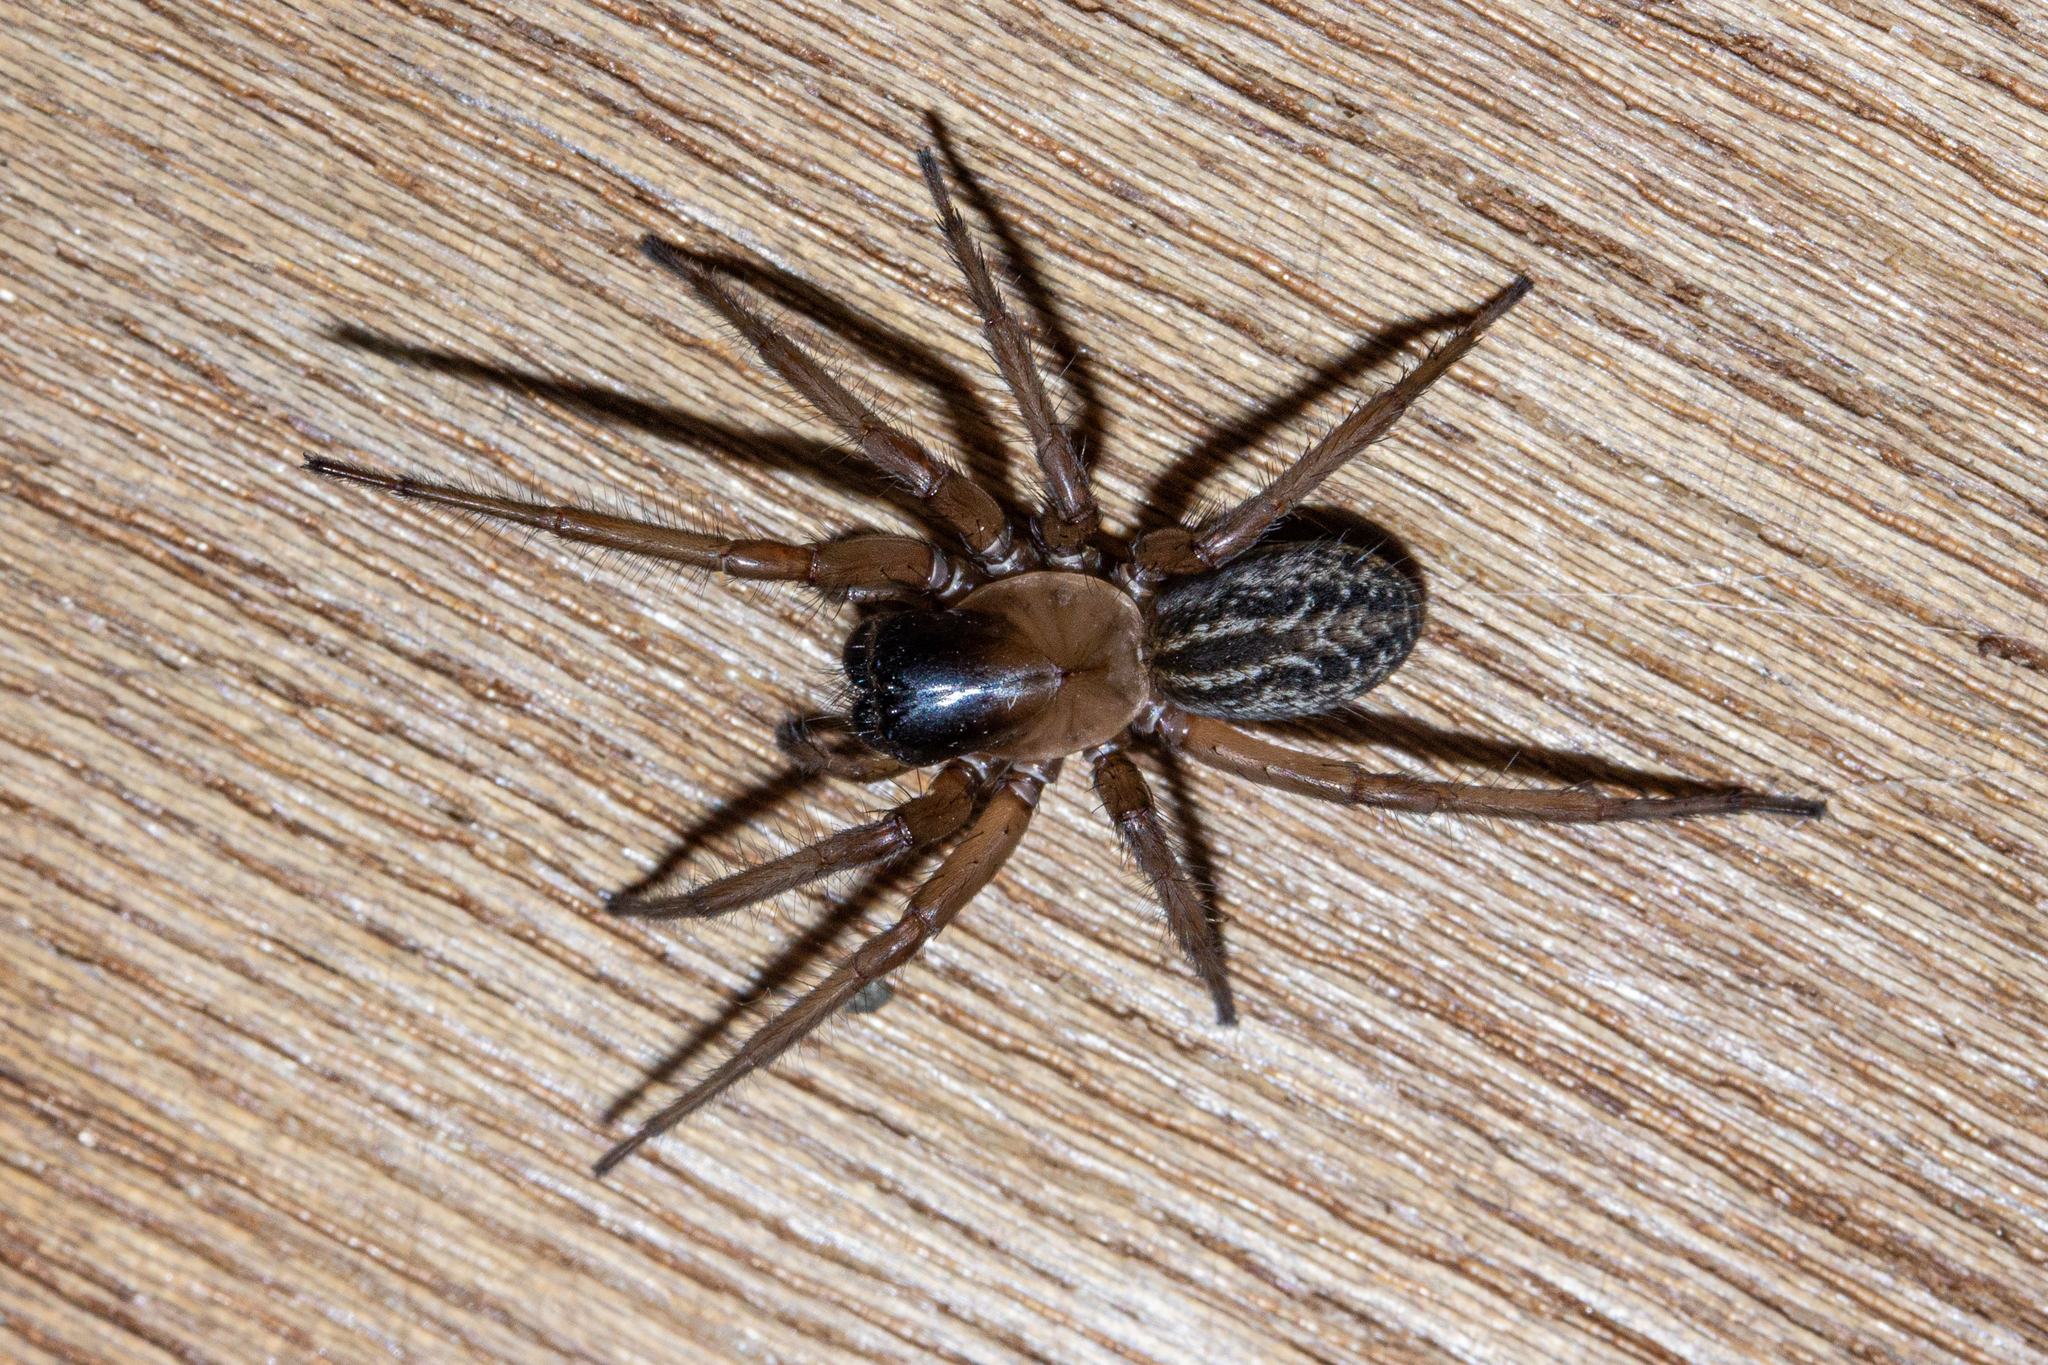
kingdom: Animalia
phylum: Arthropoda
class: Arachnida
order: Araneae
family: Stiphidiidae
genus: Neoramia
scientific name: Neoramia alta
